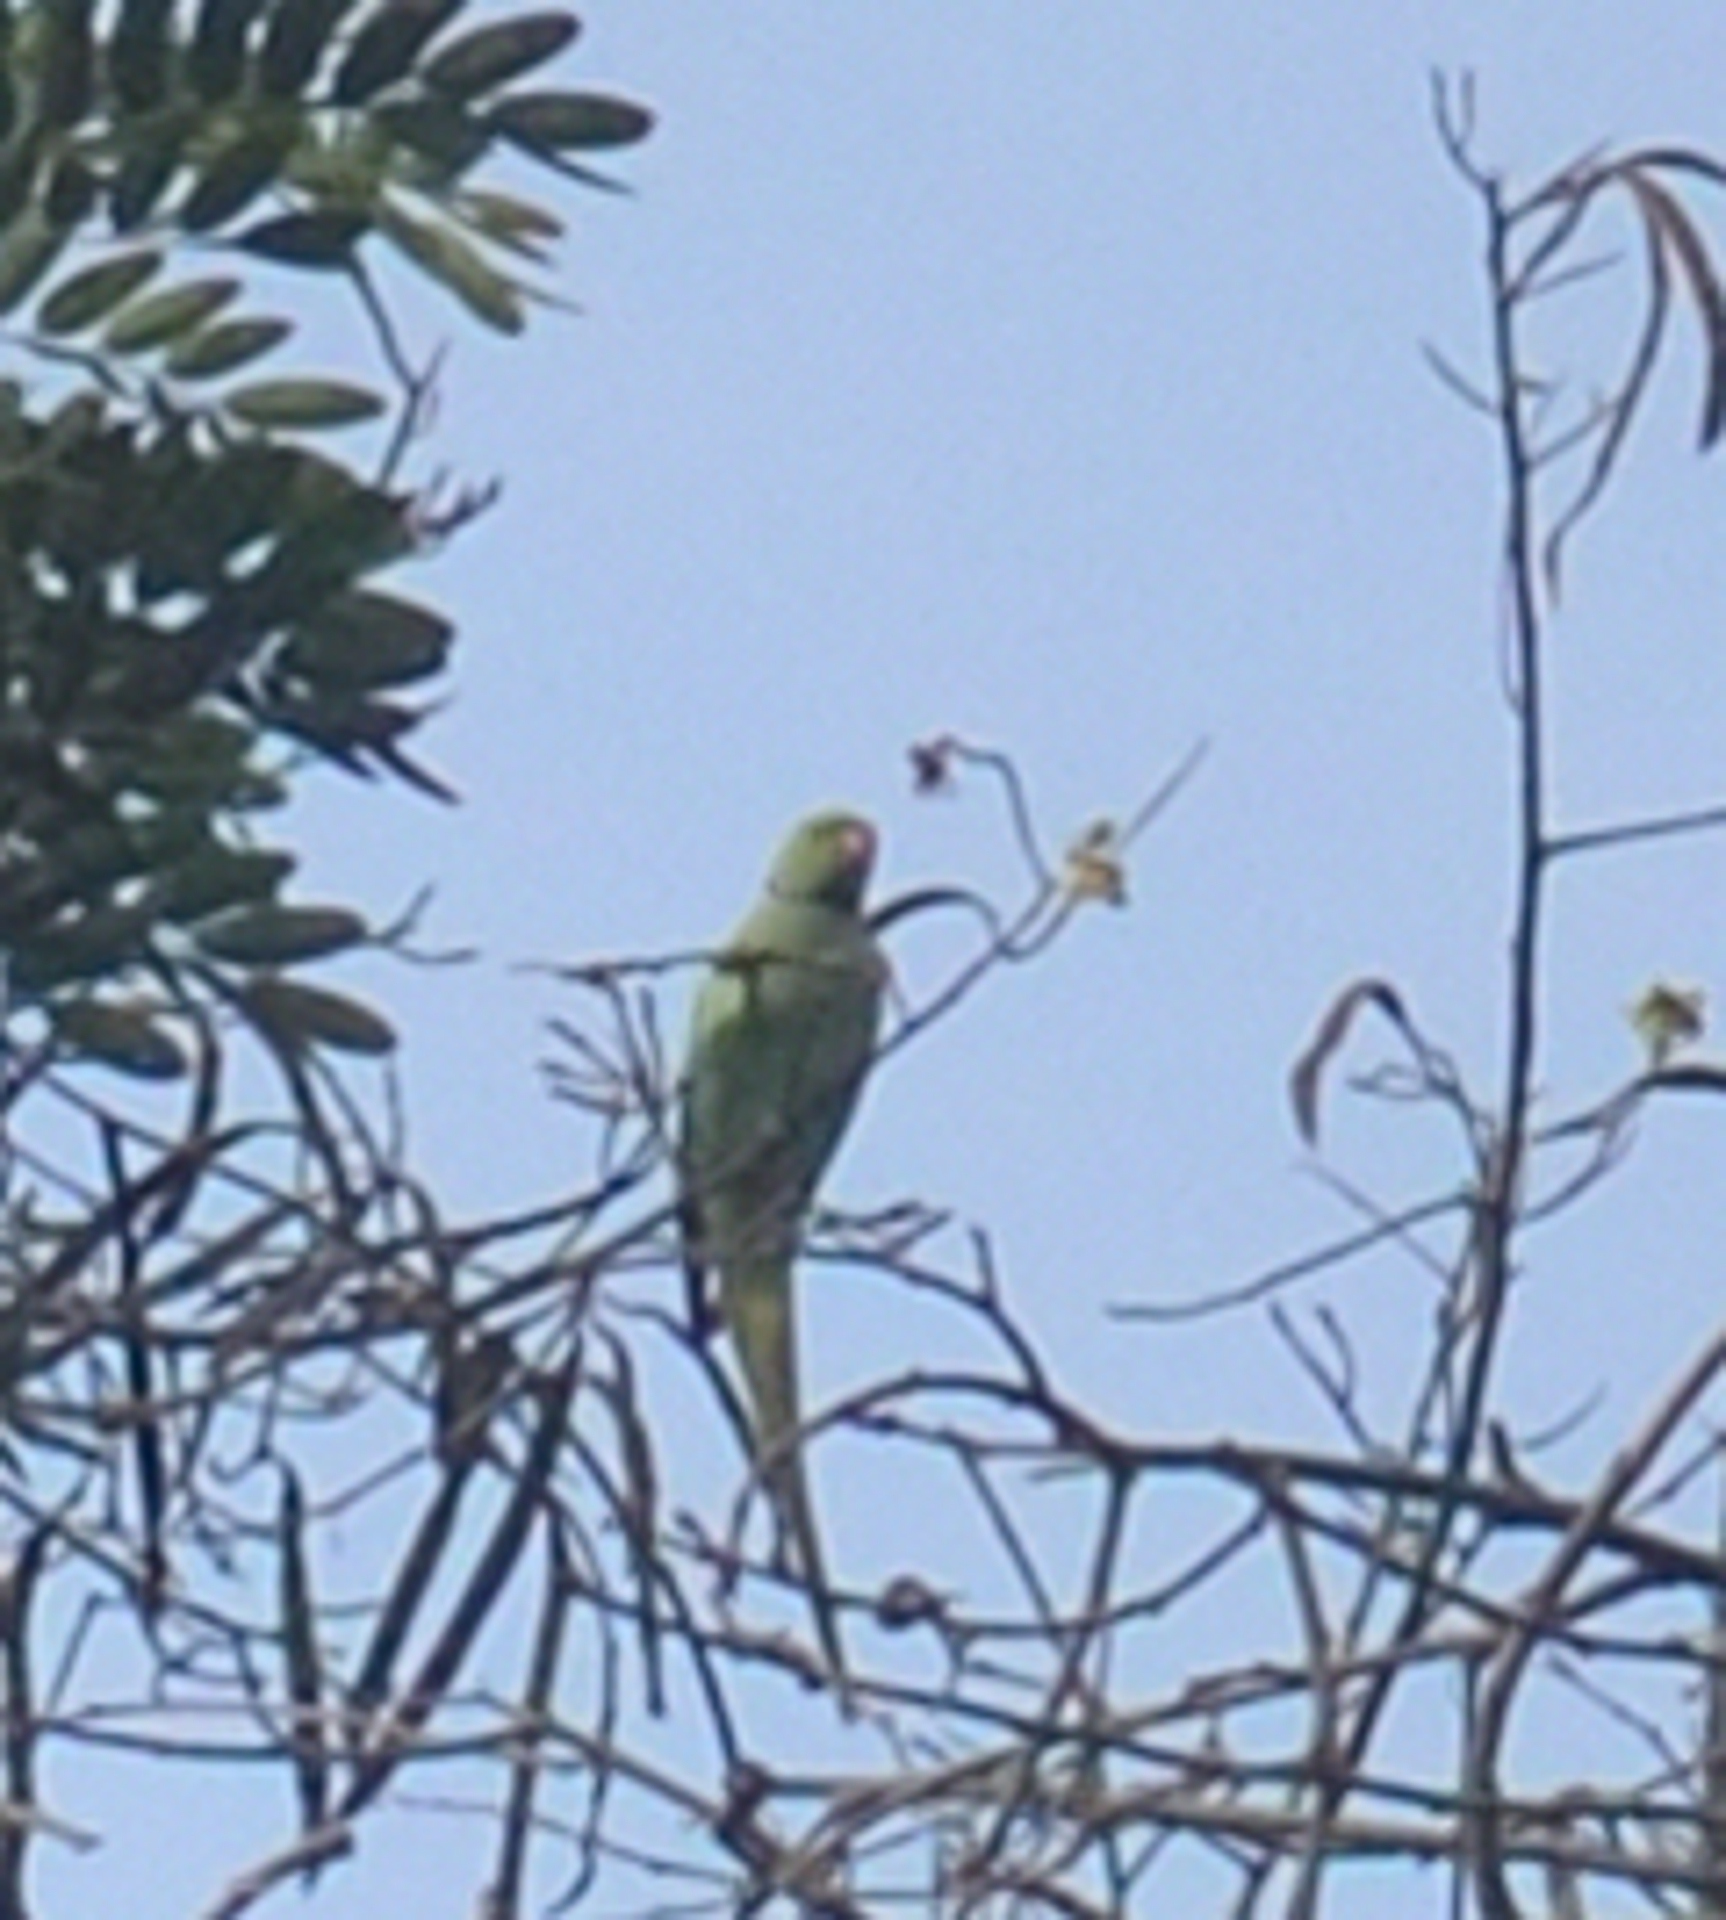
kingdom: Animalia
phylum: Chordata
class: Aves
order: Psittaciformes
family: Psittacidae
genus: Psittacula
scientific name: Psittacula krameri
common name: Rose-ringed parakeet
